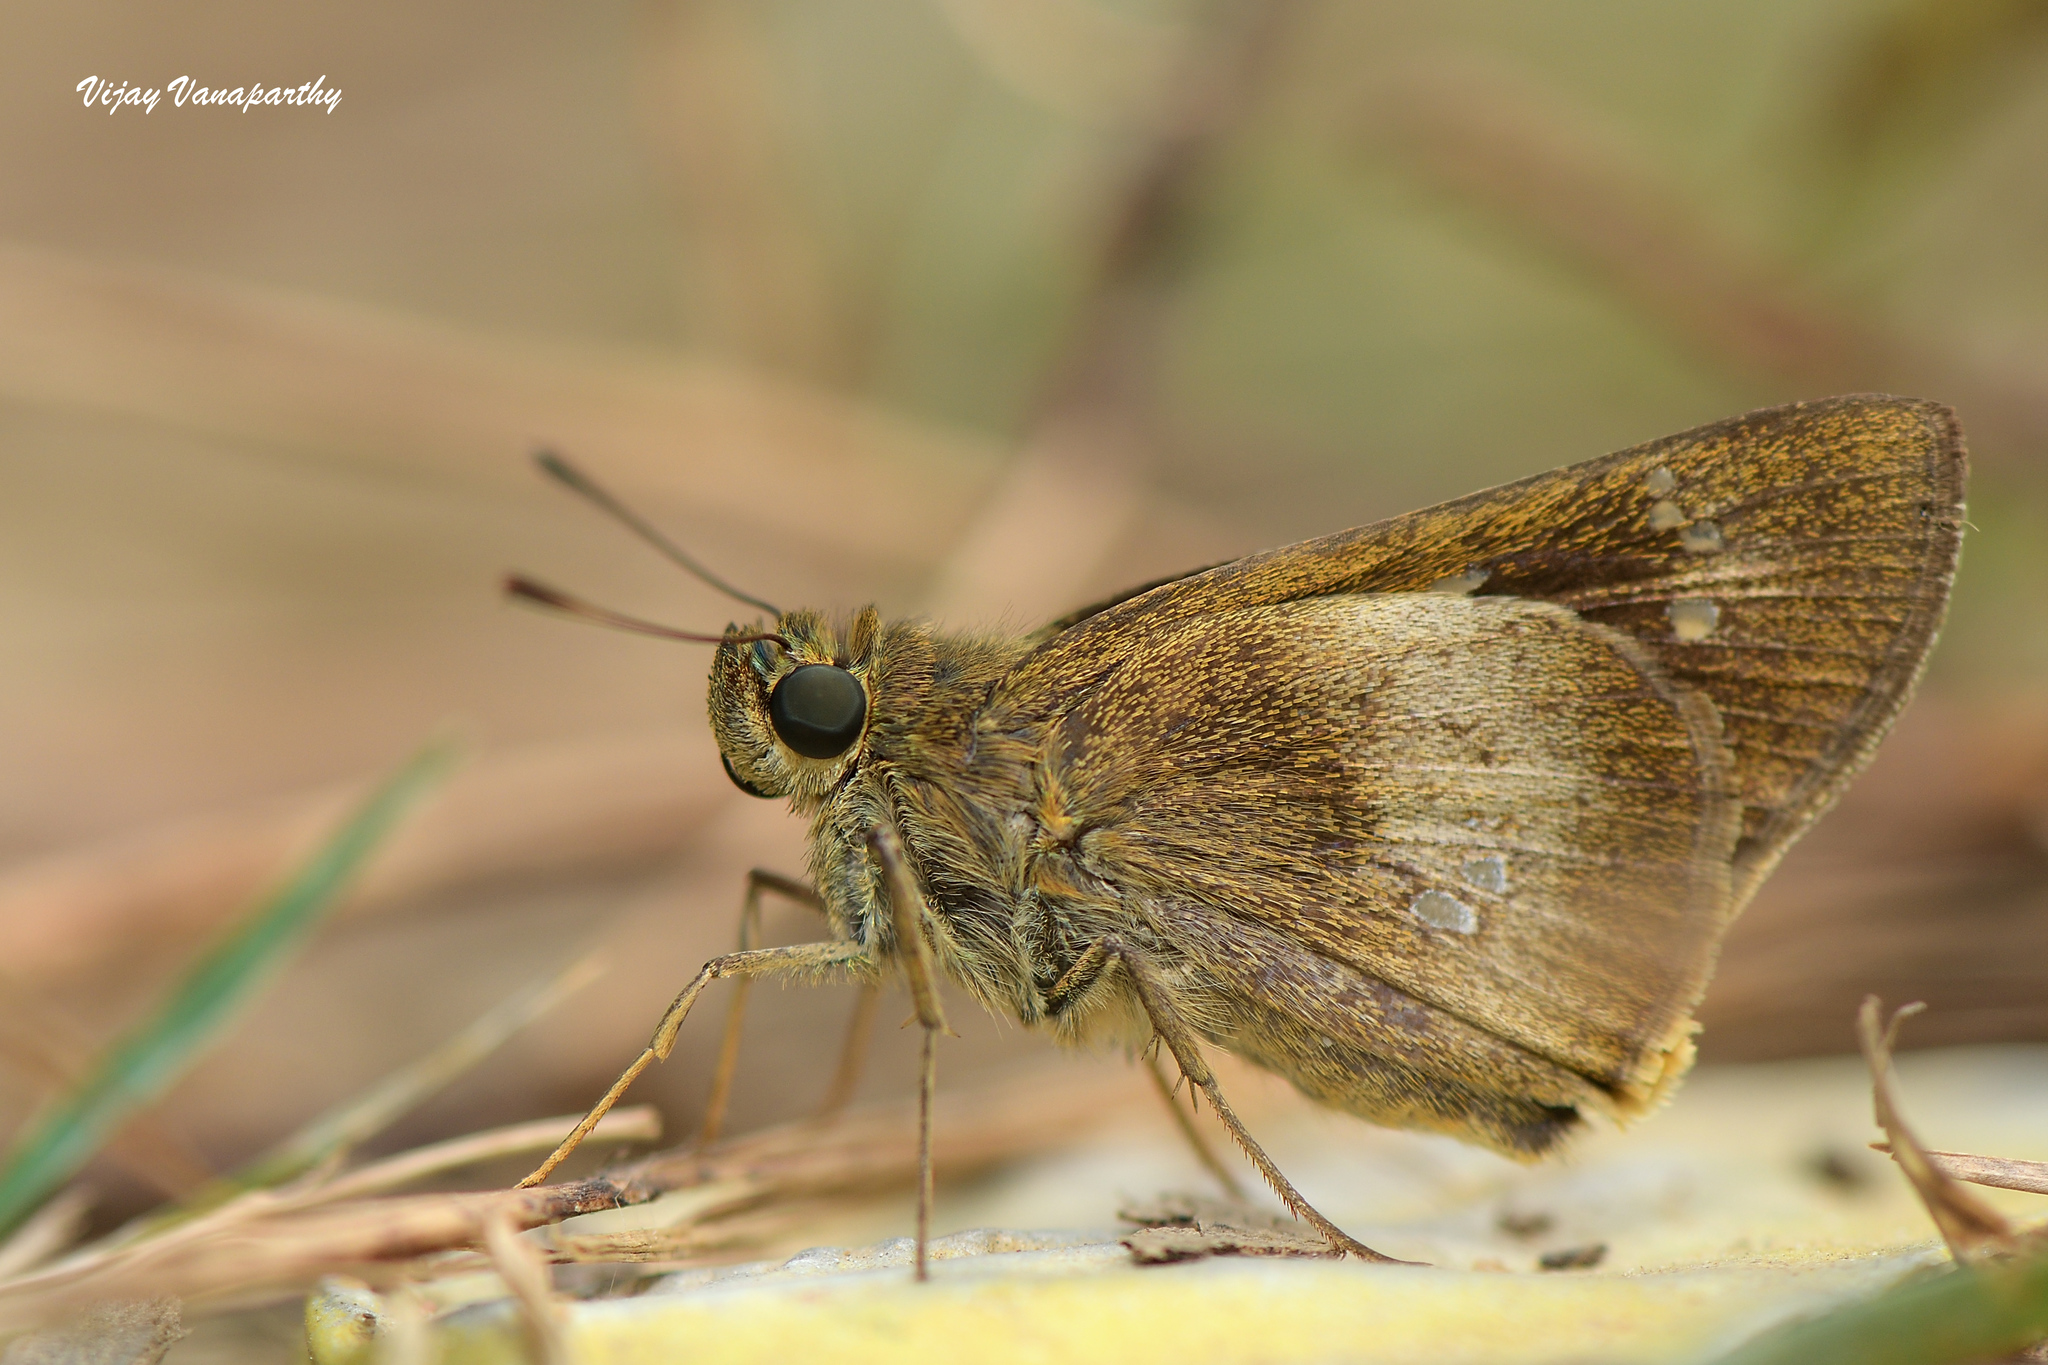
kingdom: Animalia
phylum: Arthropoda
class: Insecta
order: Lepidoptera
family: Hesperiidae
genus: Caltoris
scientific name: Caltoris canaraica
